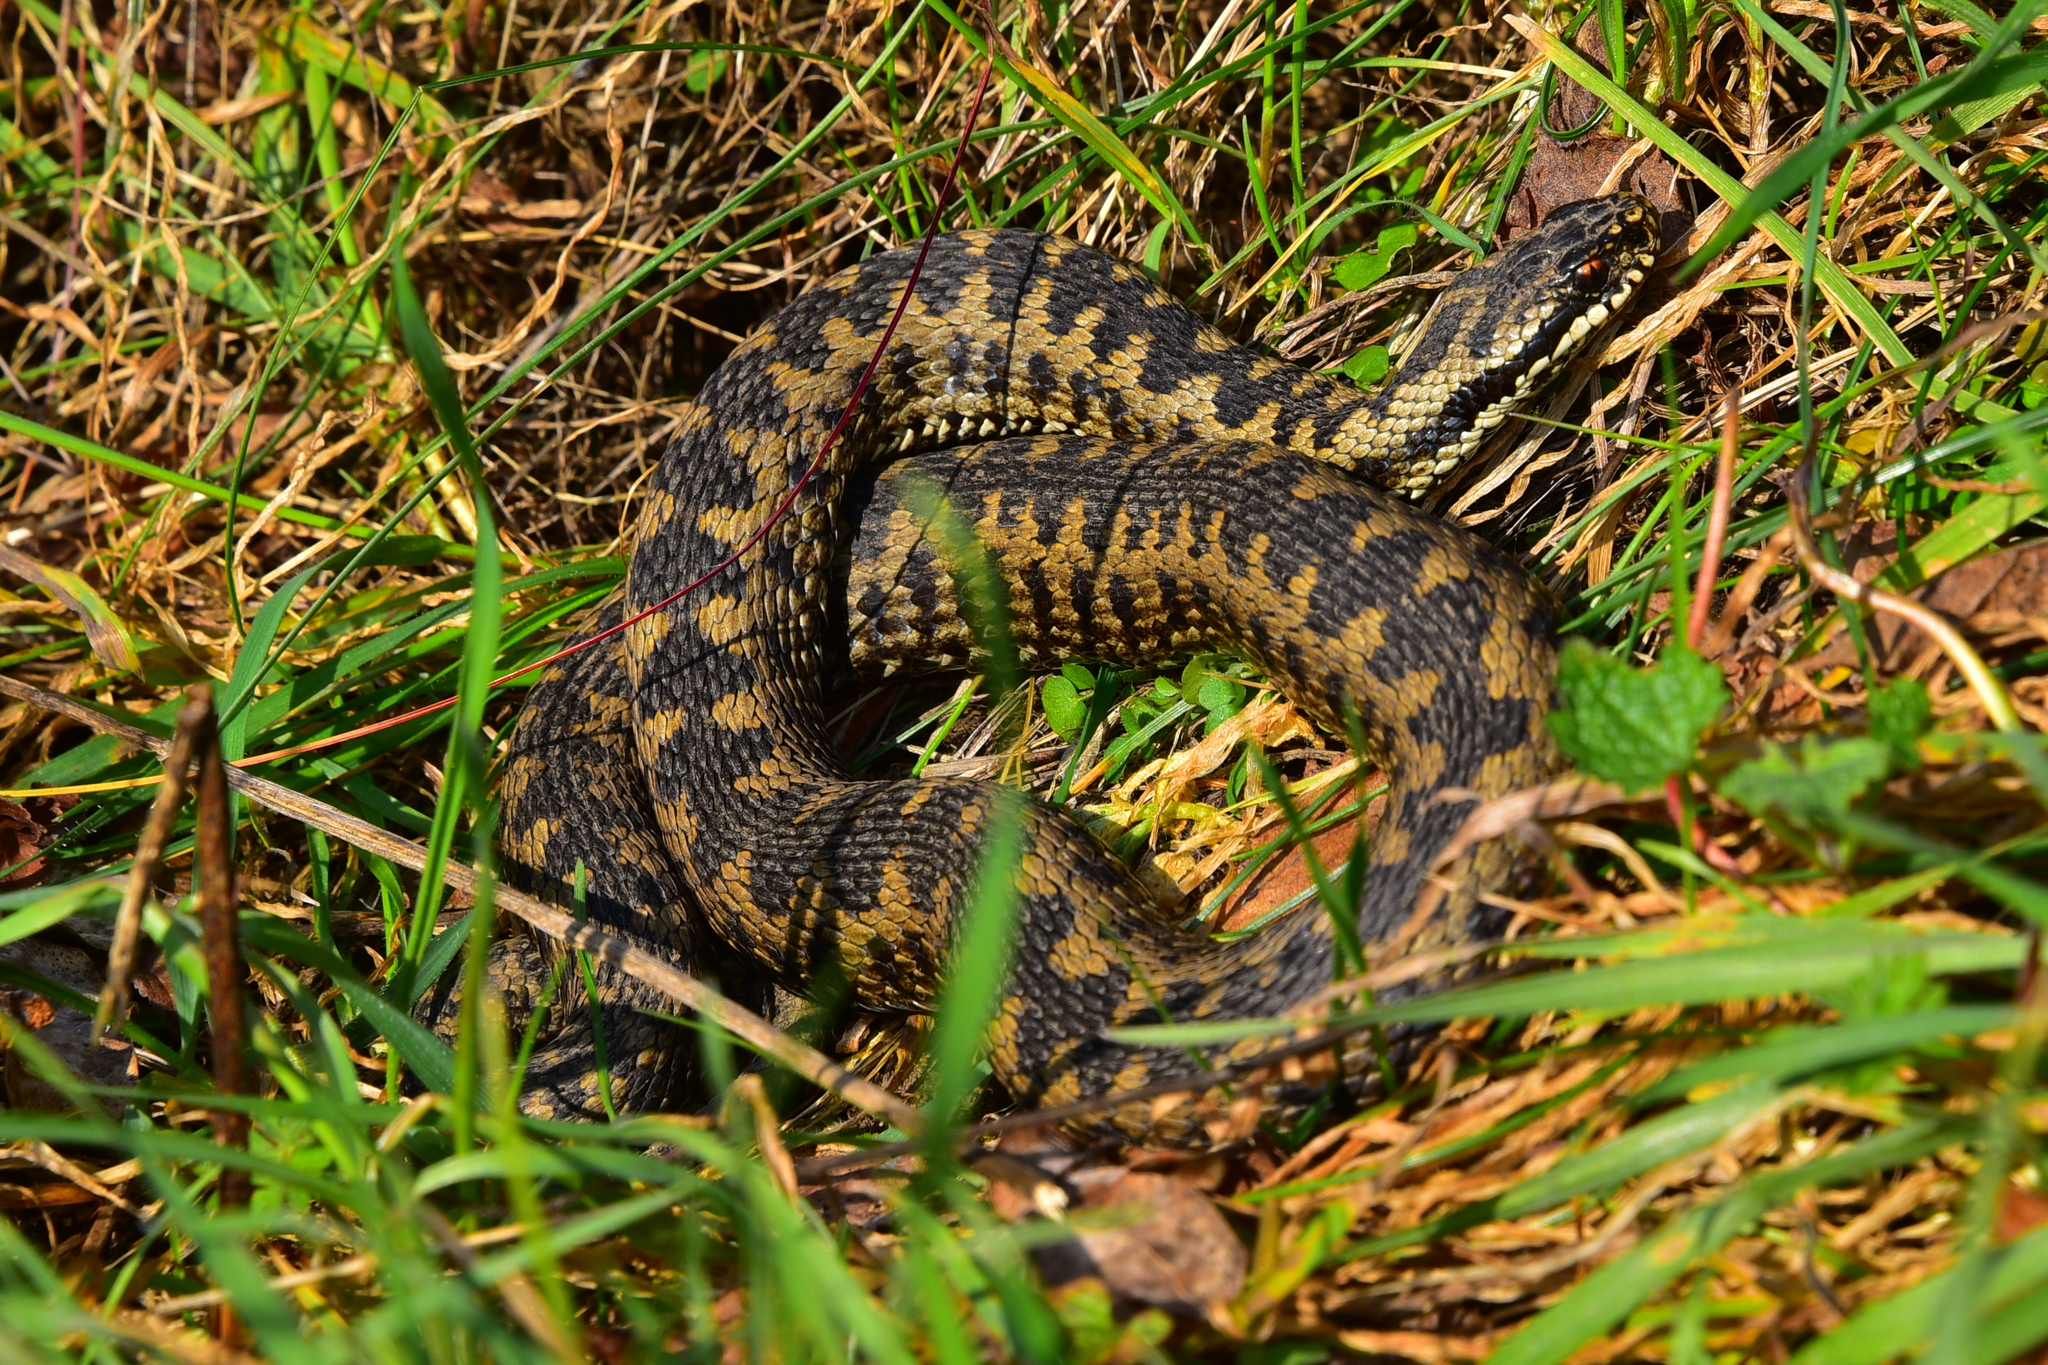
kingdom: Animalia
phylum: Chordata
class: Squamata
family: Viperidae
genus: Vipera
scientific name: Vipera berus
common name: Adder
